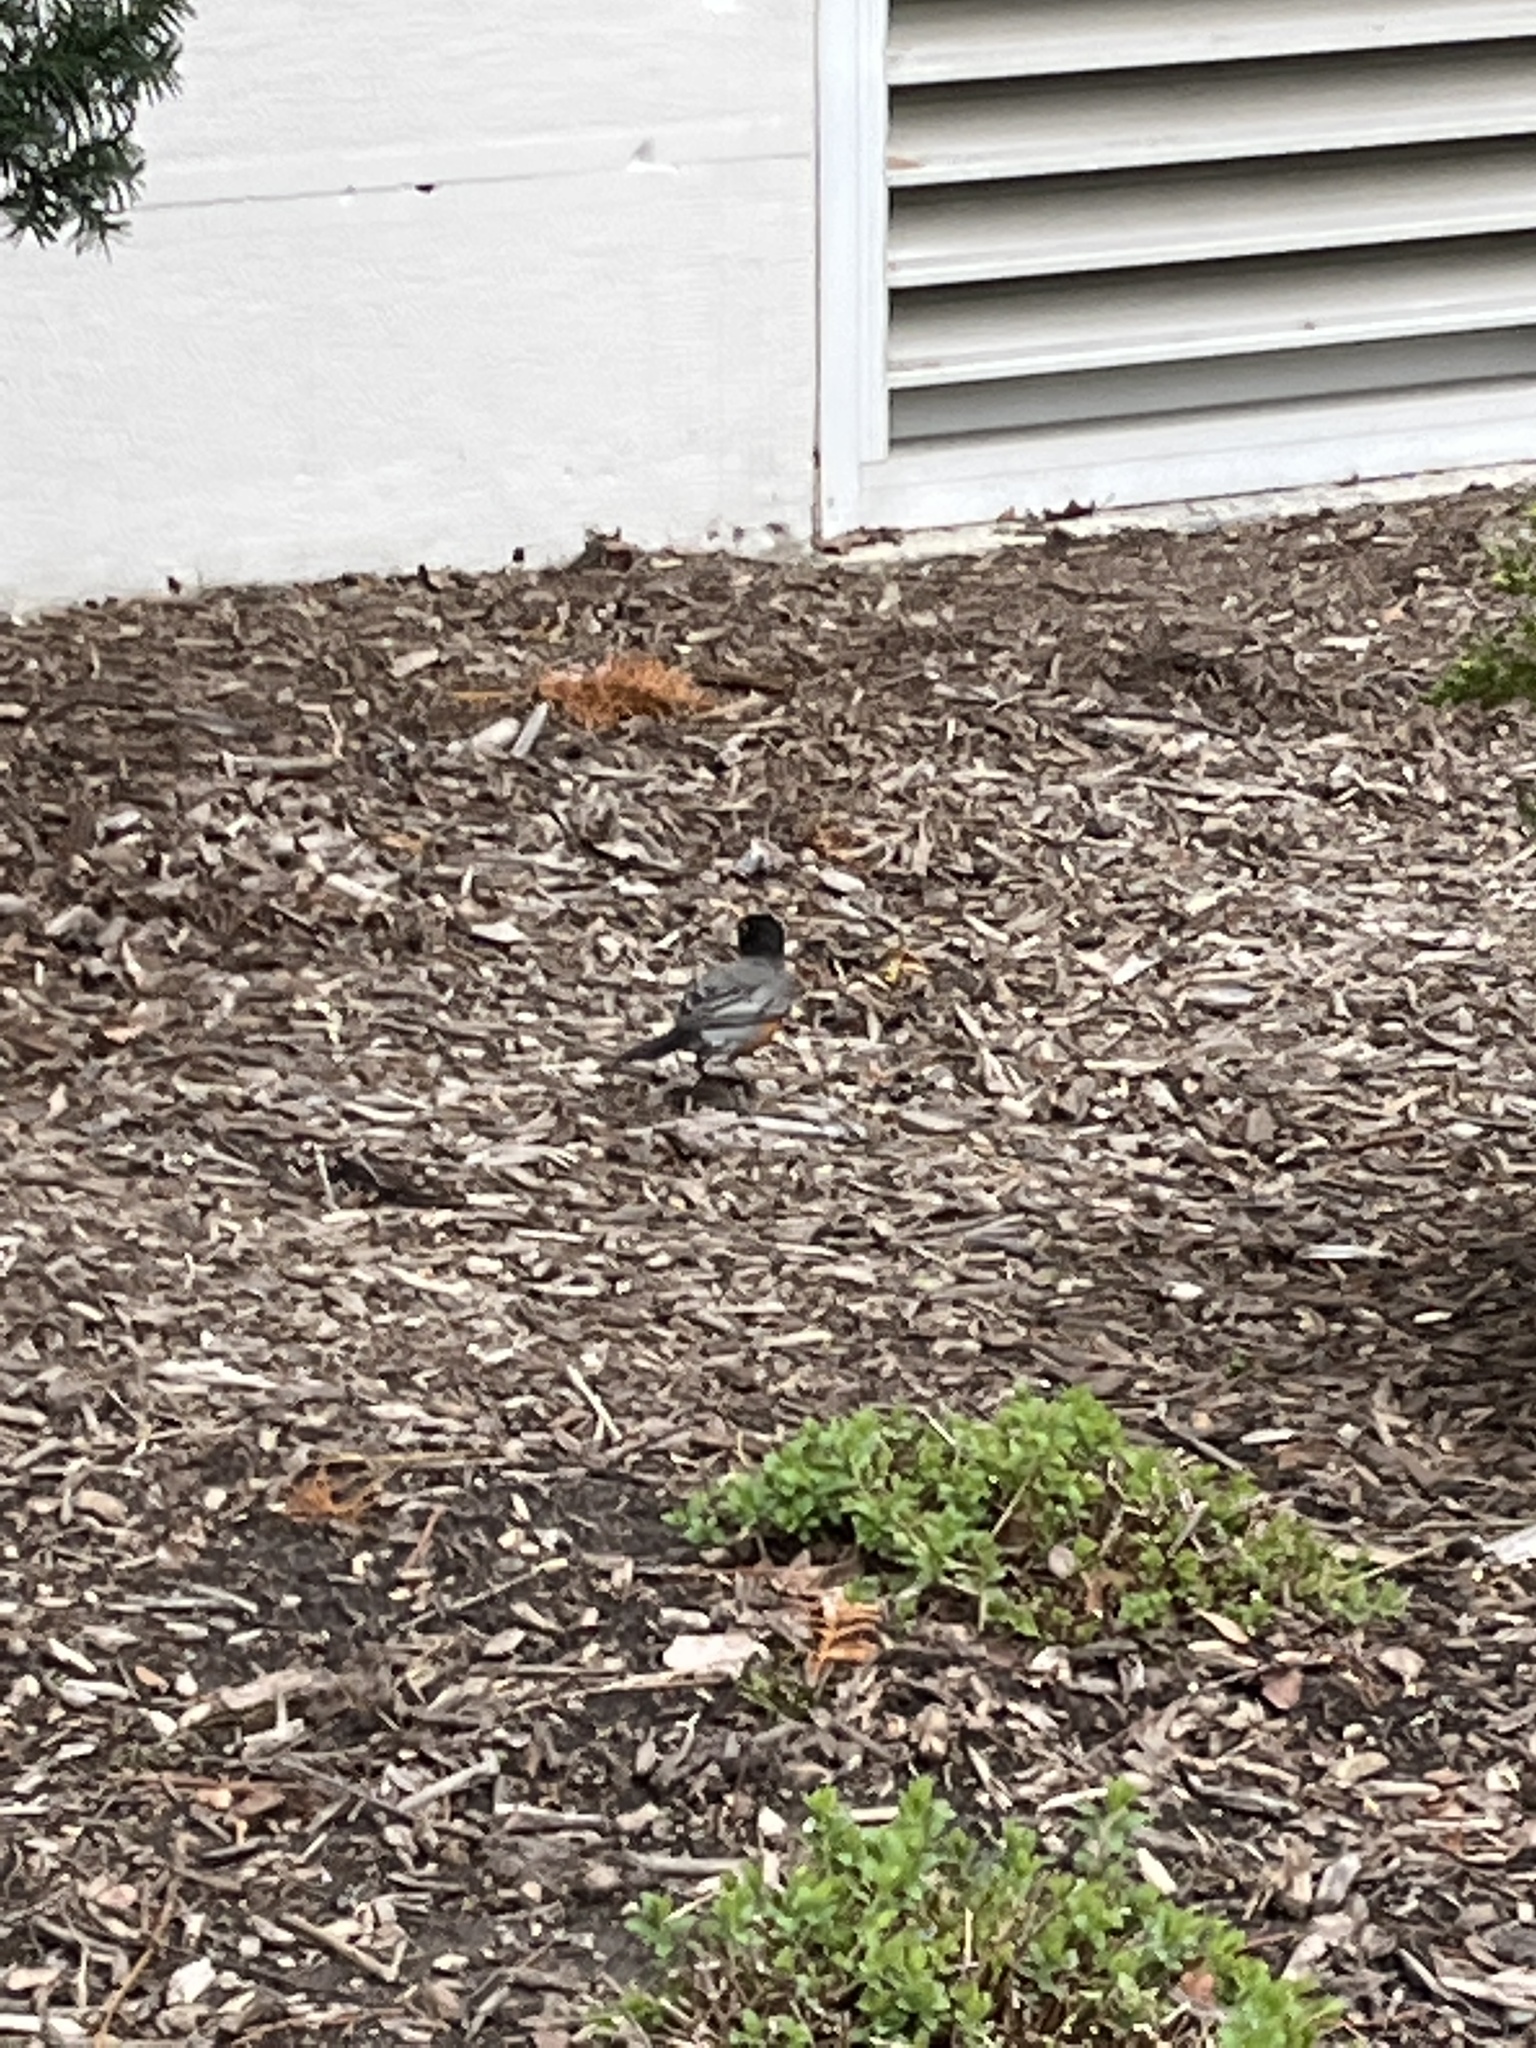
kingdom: Animalia
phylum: Chordata
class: Aves
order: Passeriformes
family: Turdidae
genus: Turdus
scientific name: Turdus migratorius
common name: American robin
